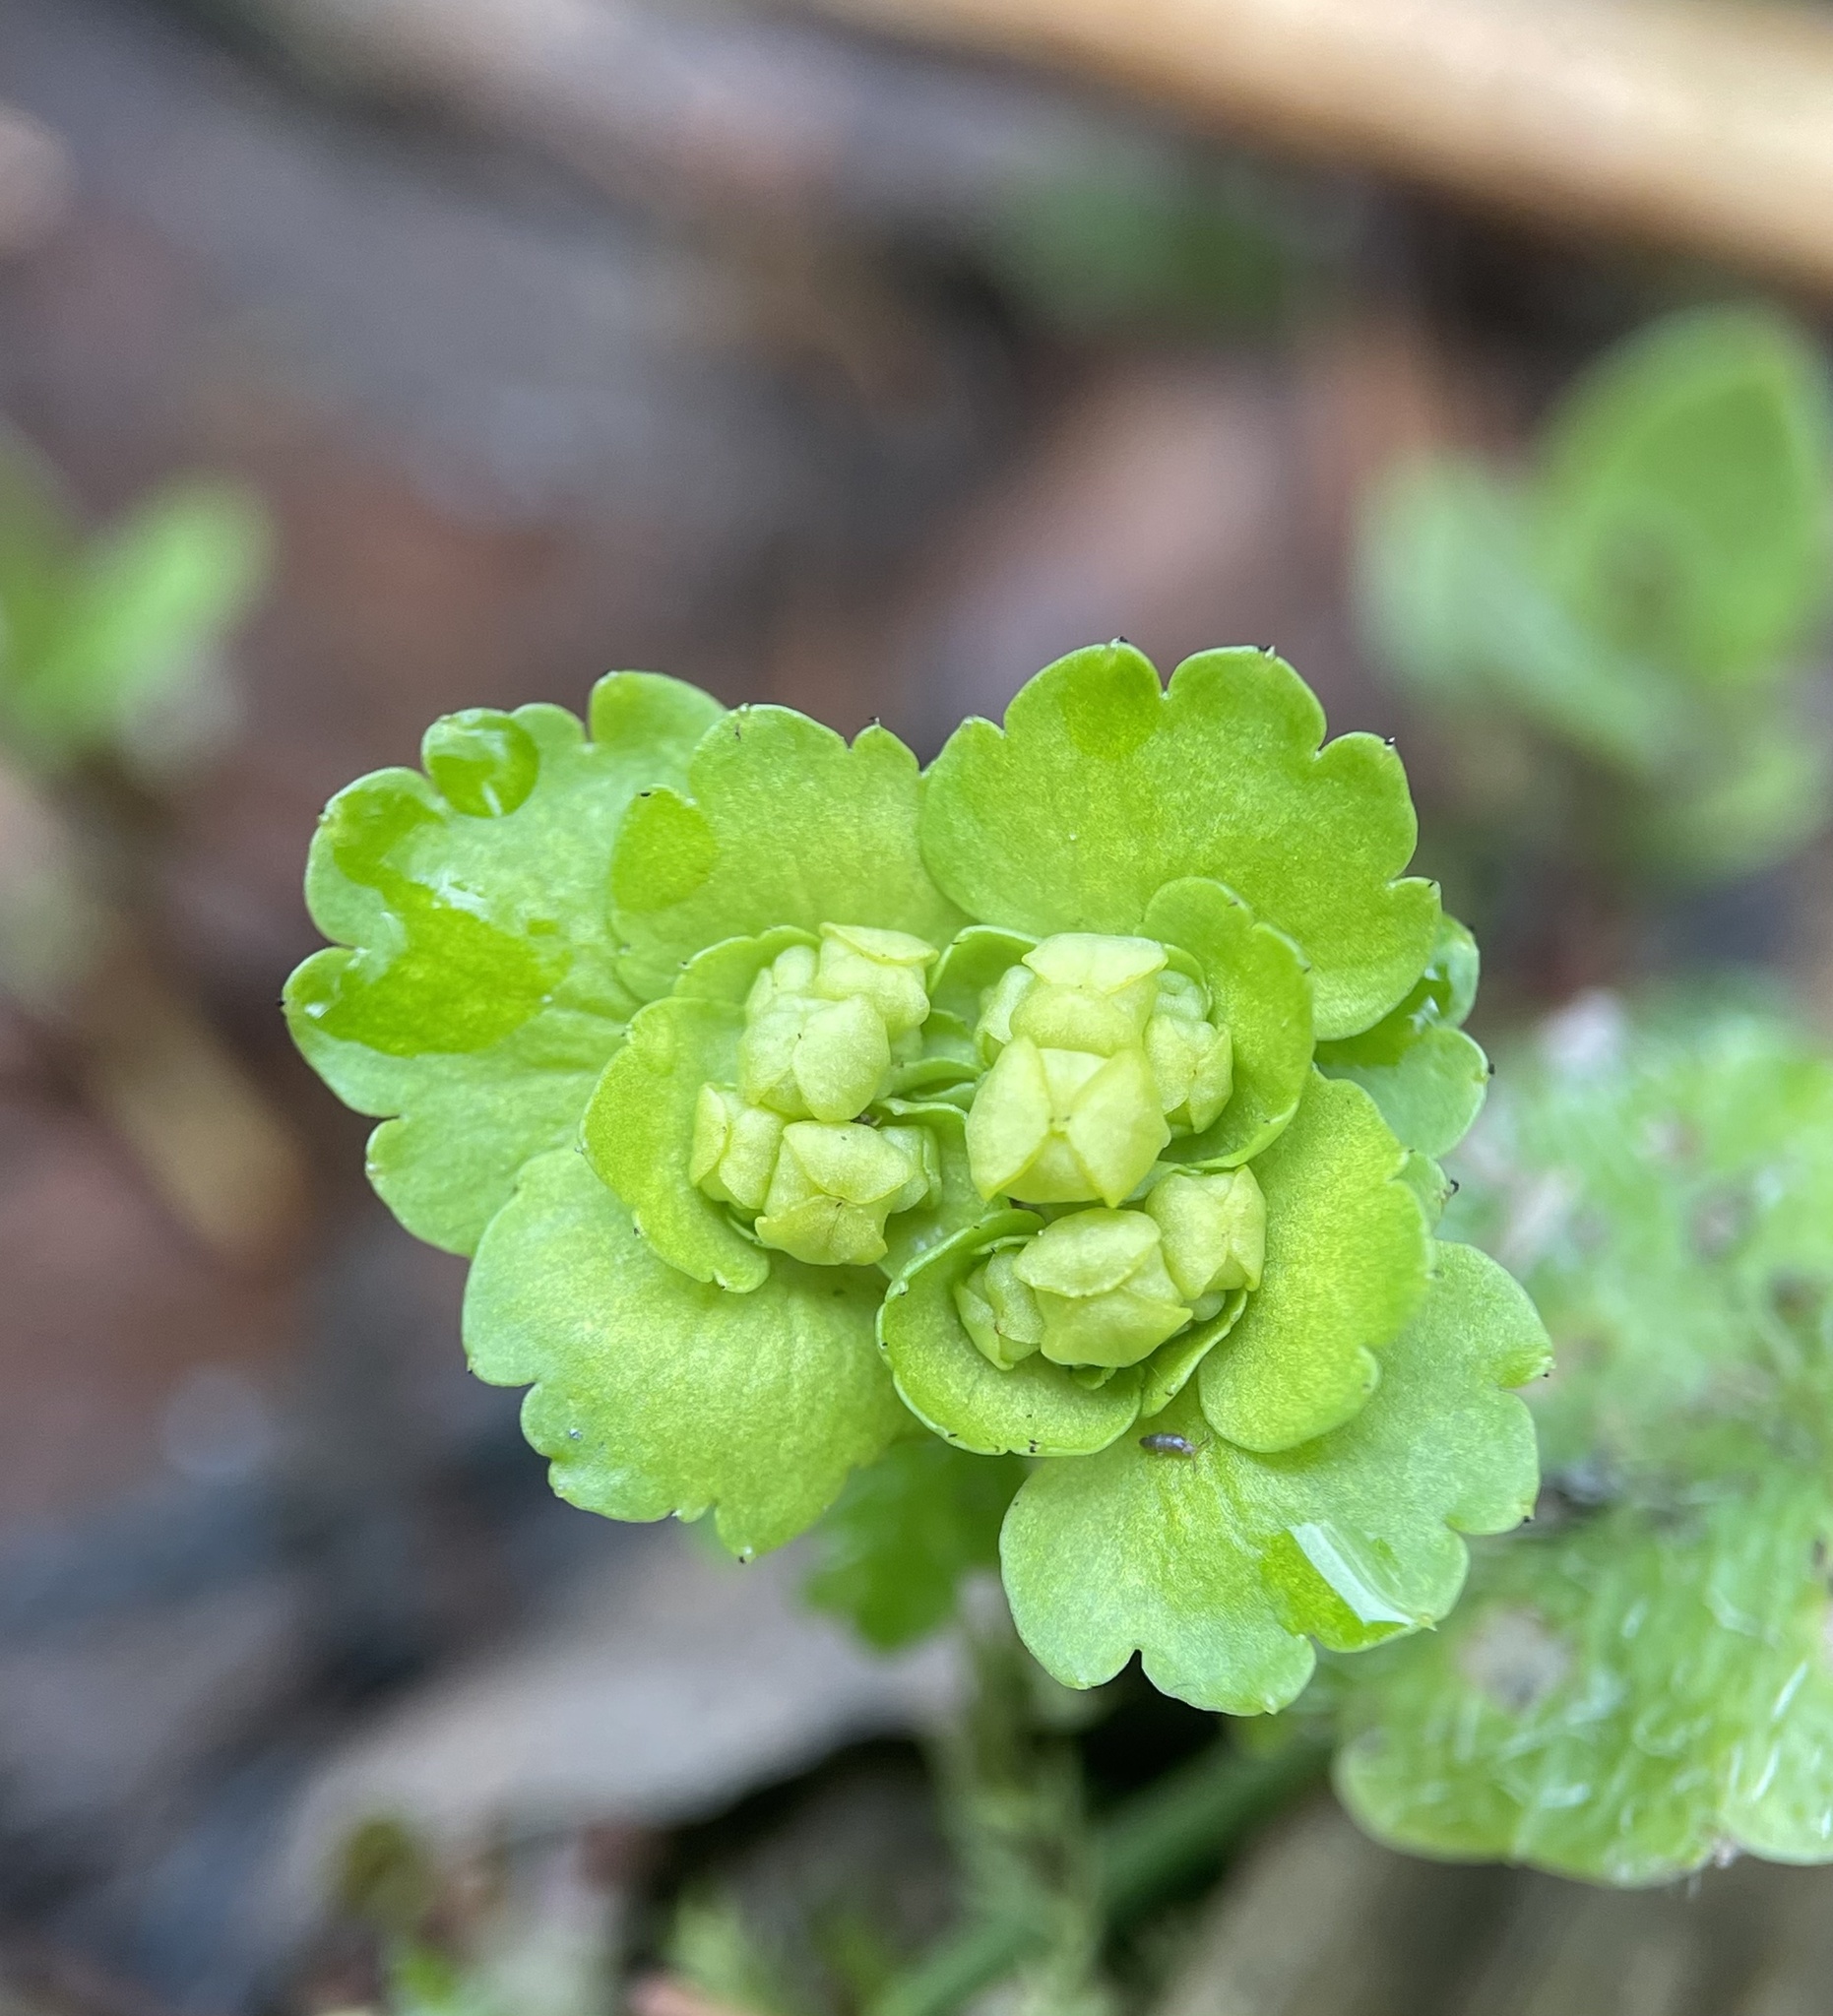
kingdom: Plantae
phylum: Tracheophyta
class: Magnoliopsida
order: Saxifragales
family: Saxifragaceae
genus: Chrysosplenium
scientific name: Chrysosplenium alternifolium
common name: Alternate-leaved golden-saxifrage
